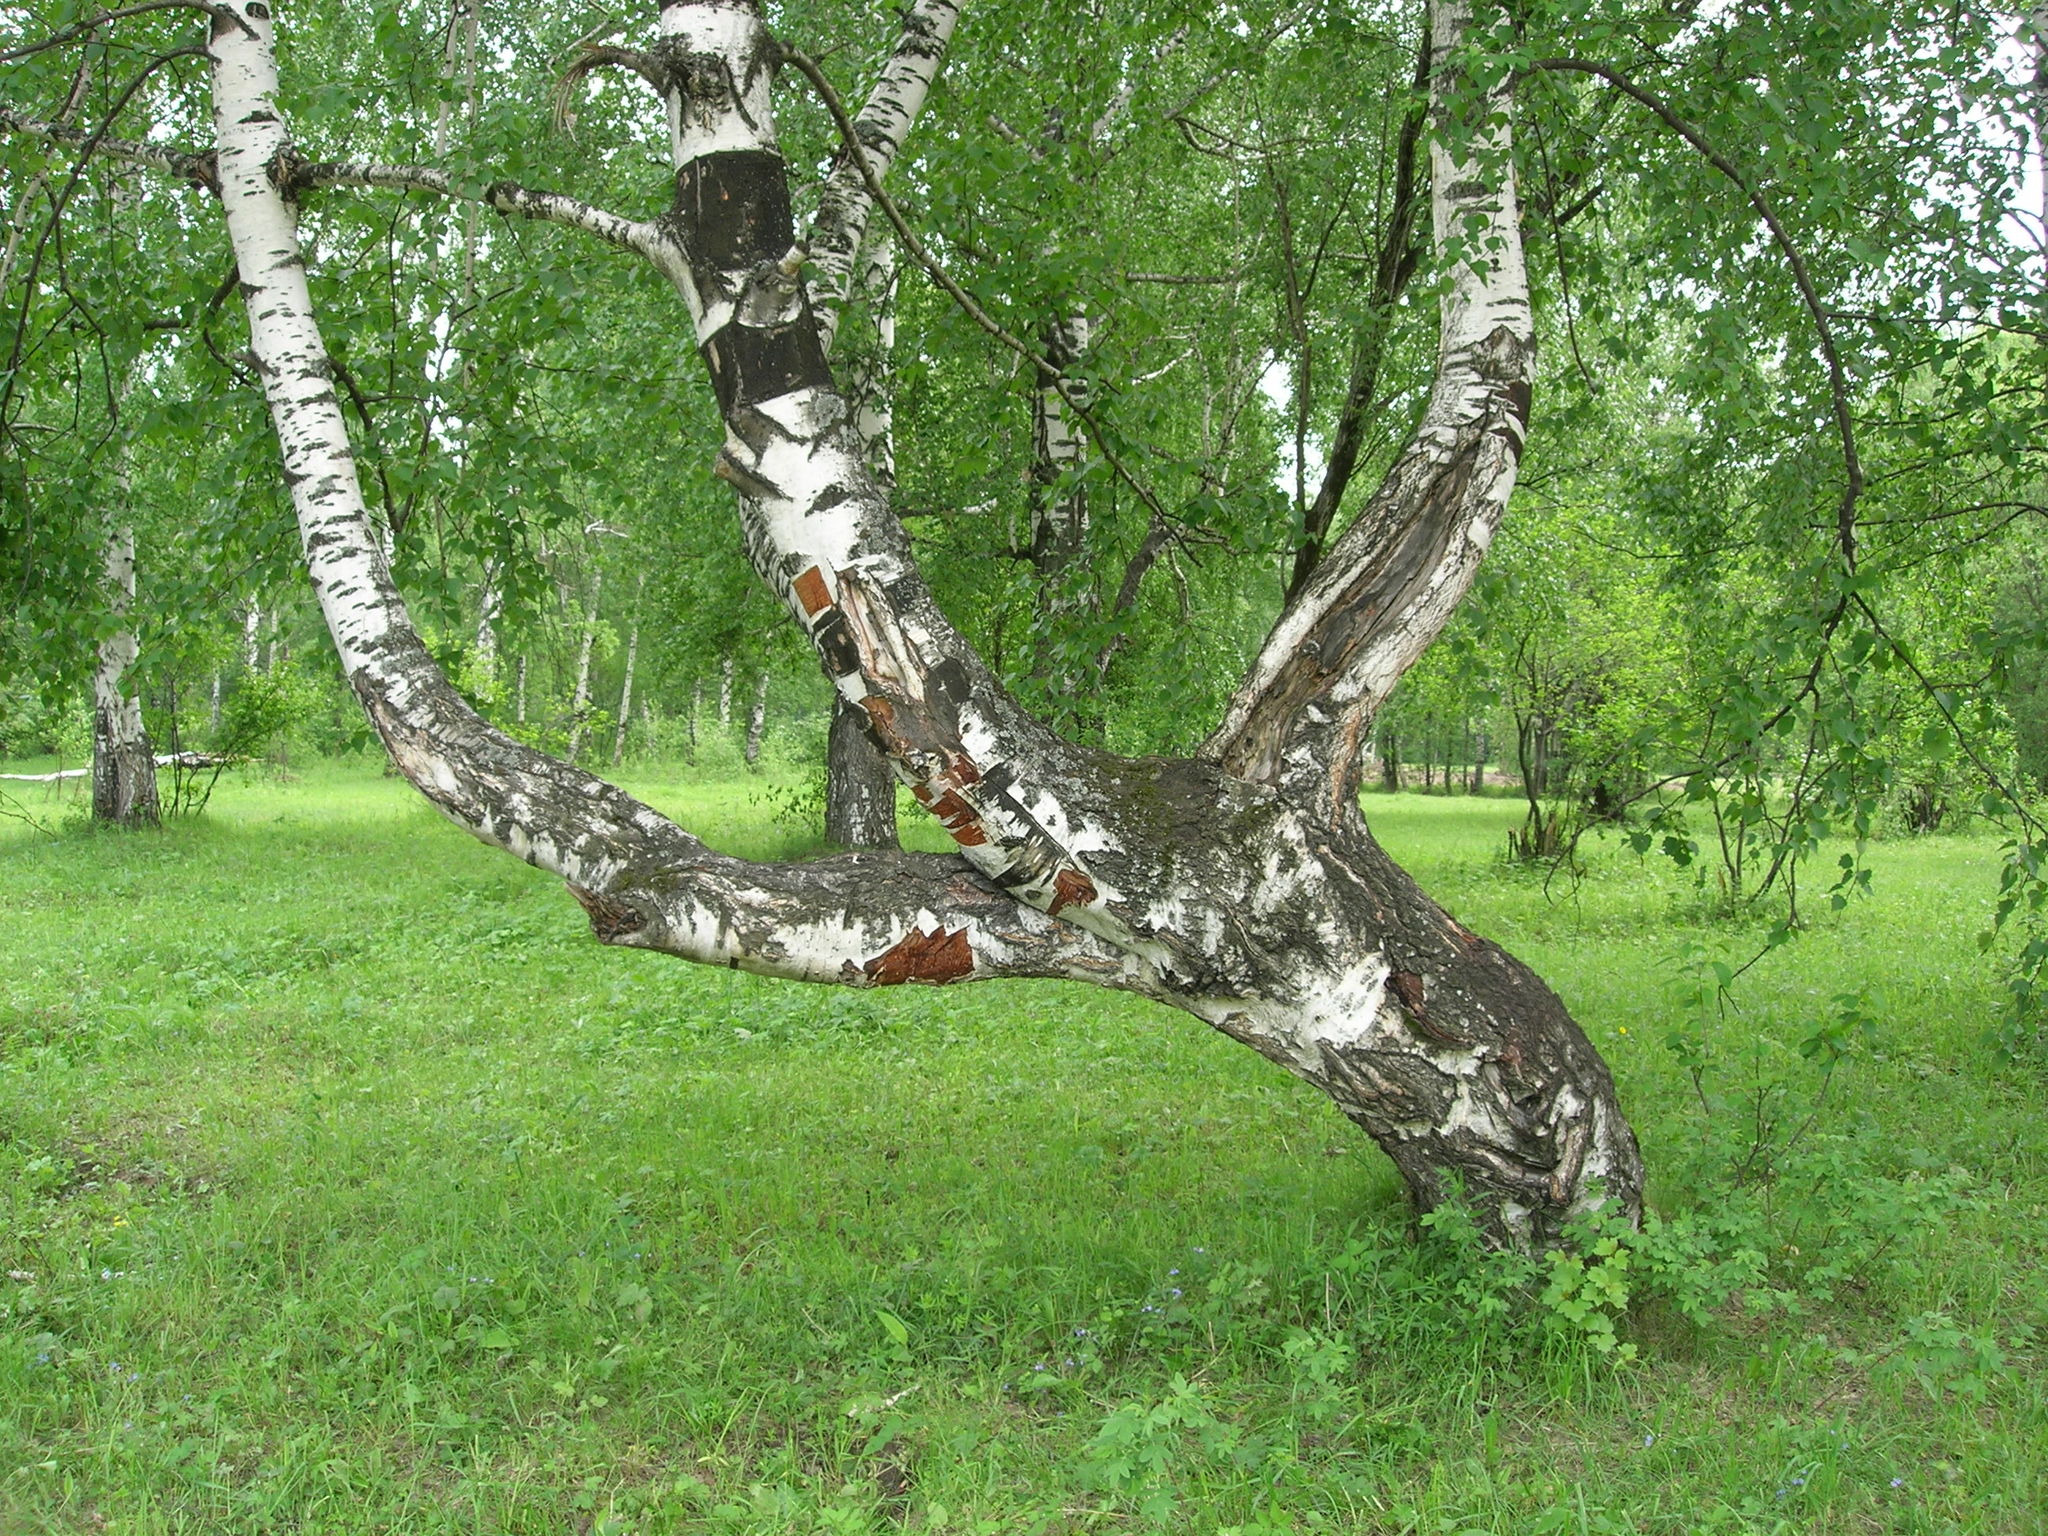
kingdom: Plantae
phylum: Tracheophyta
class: Magnoliopsida
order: Fagales
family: Betulaceae
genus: Betula
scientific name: Betula pendula
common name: Silver birch
